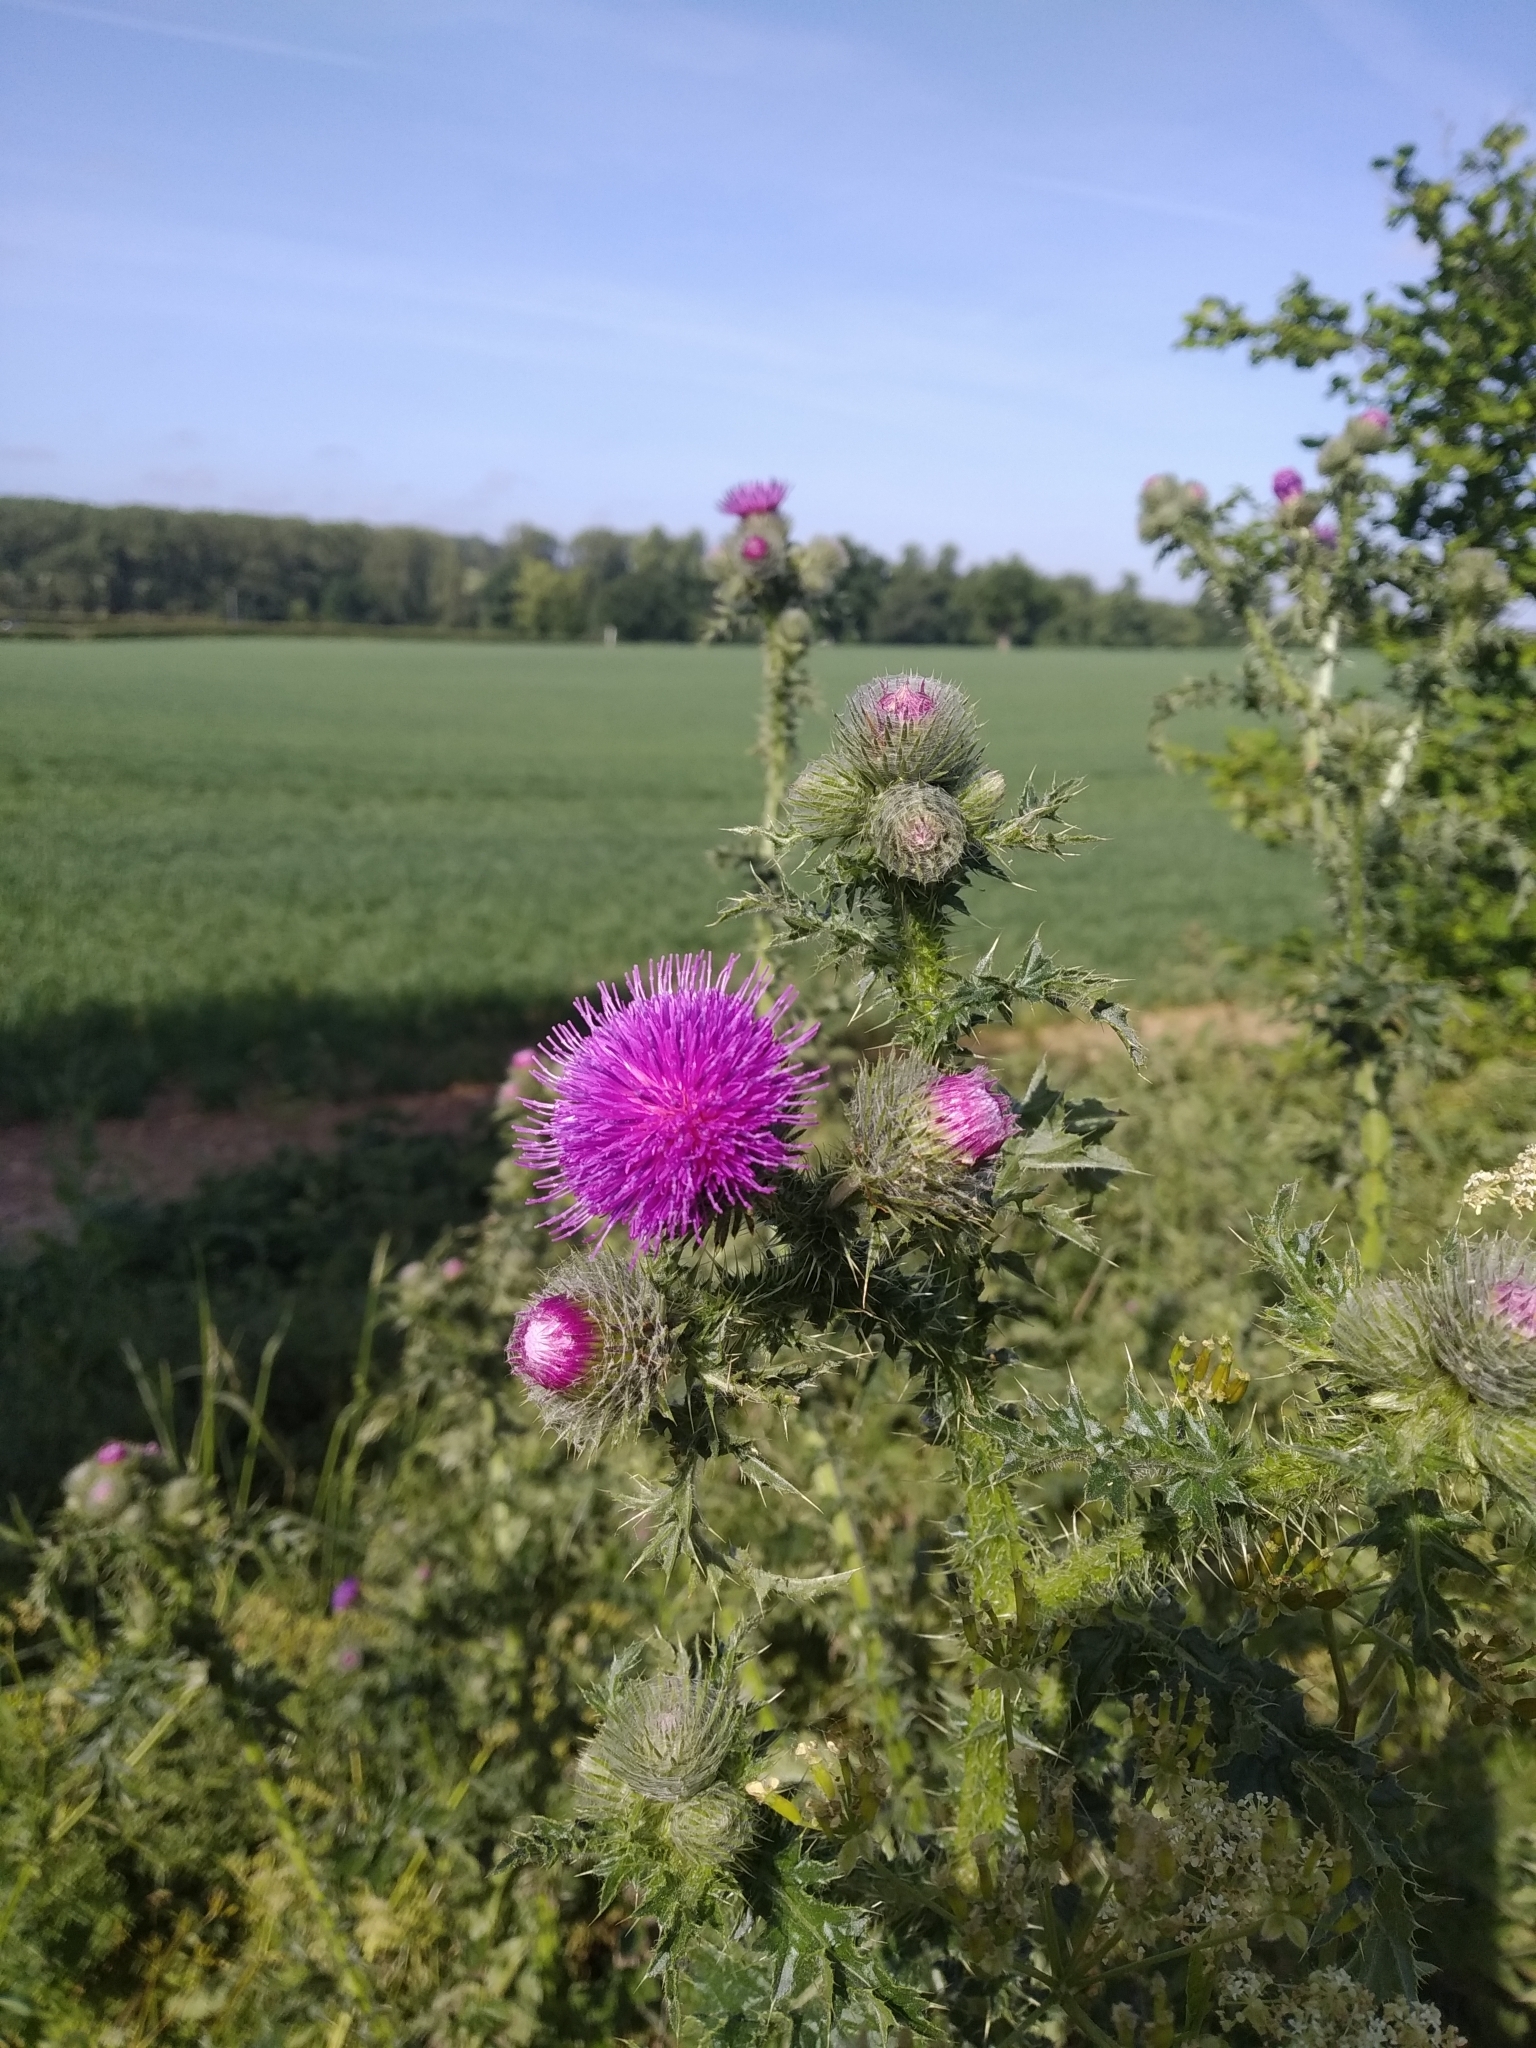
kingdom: Plantae
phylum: Tracheophyta
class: Magnoliopsida
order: Asterales
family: Asteraceae
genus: Carduus
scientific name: Carduus crispus
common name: Welted thistle
